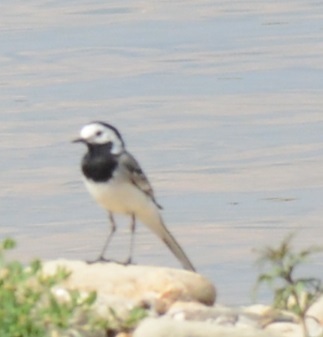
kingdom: Animalia
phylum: Chordata
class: Aves
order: Passeriformes
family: Motacillidae
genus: Motacilla
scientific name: Motacilla alba
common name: White wagtail
